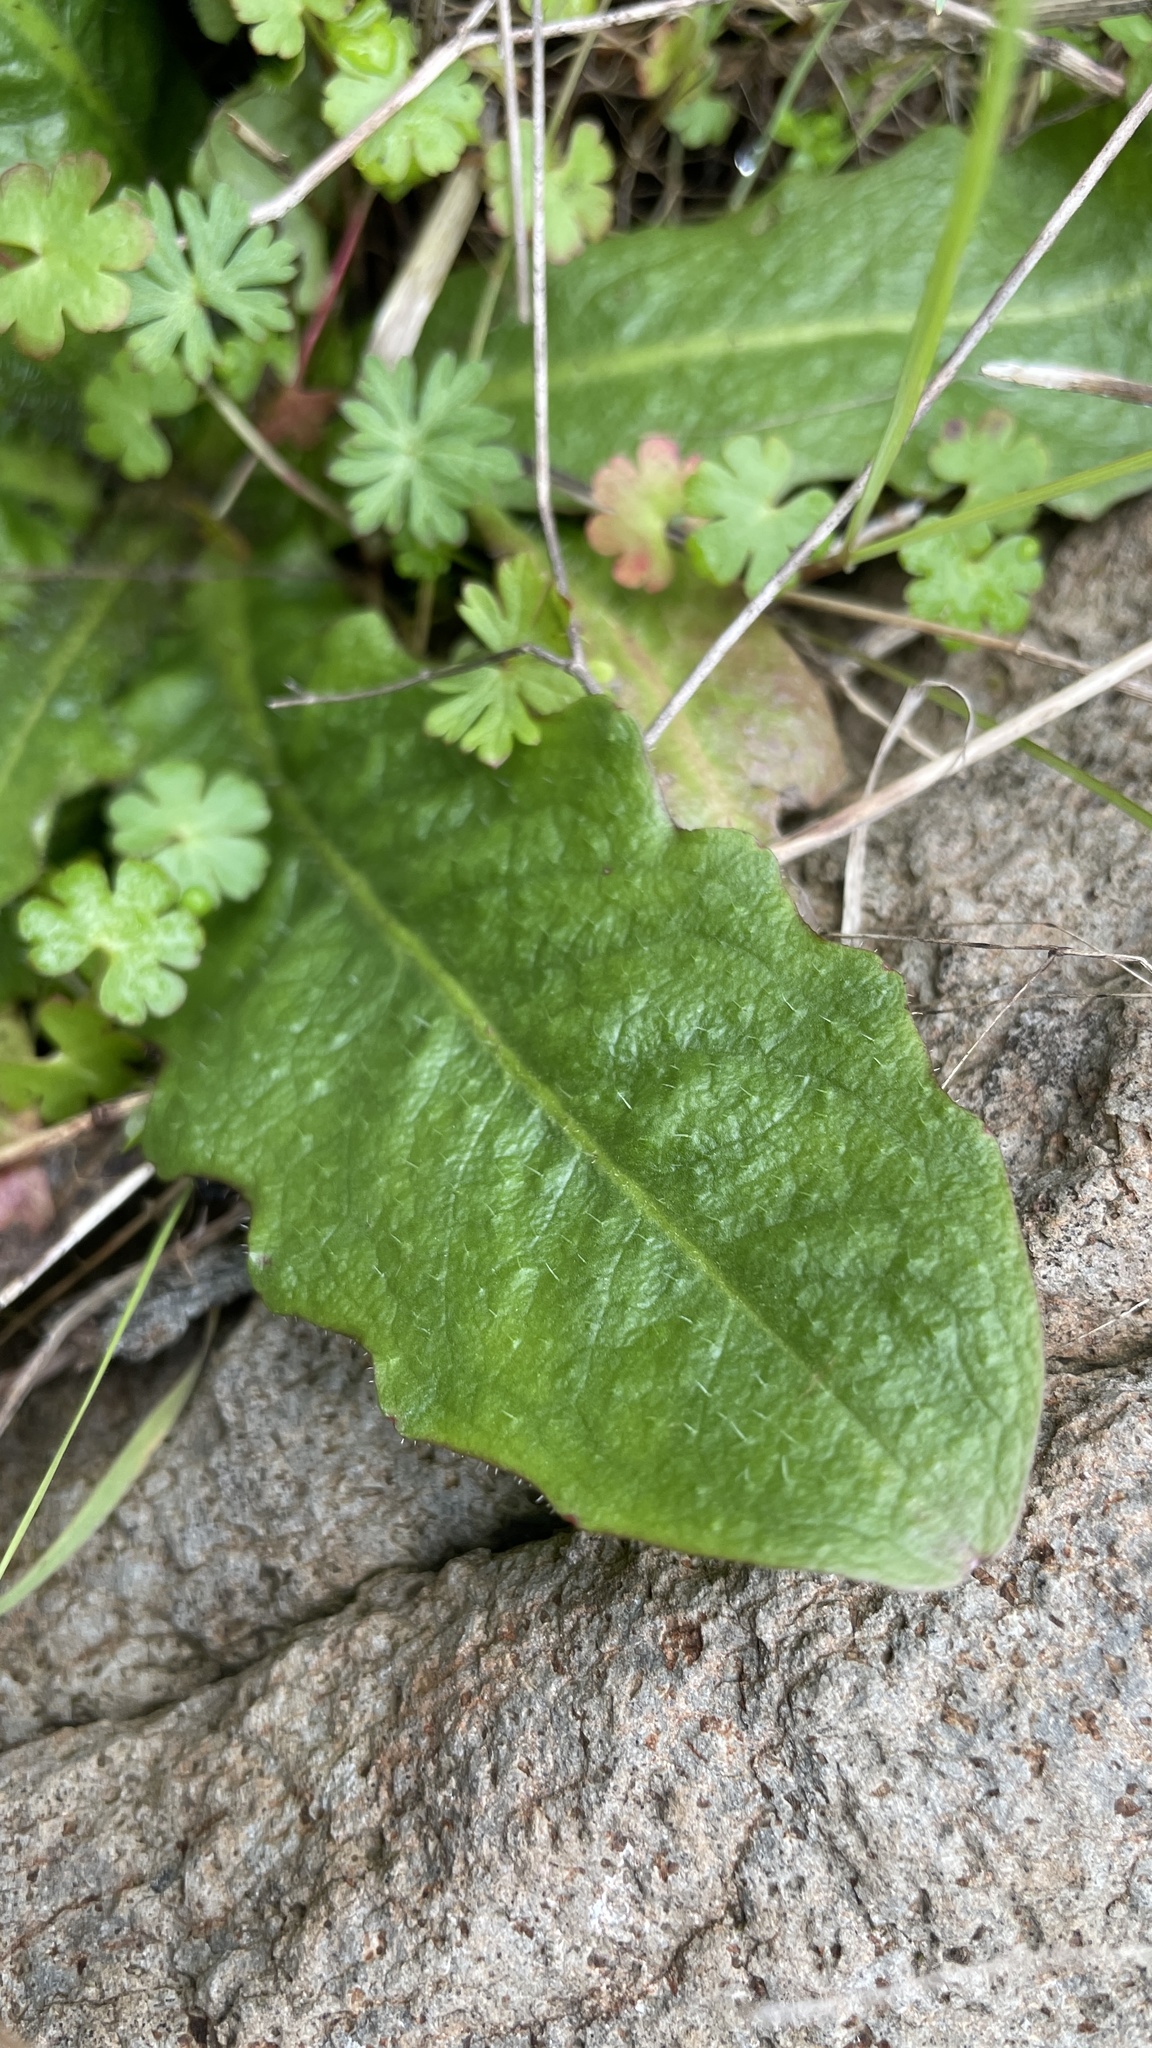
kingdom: Plantae
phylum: Tracheophyta
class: Magnoliopsida
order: Asterales
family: Asteraceae
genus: Hypochaeris
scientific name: Hypochaeris radicata
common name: Flatweed
